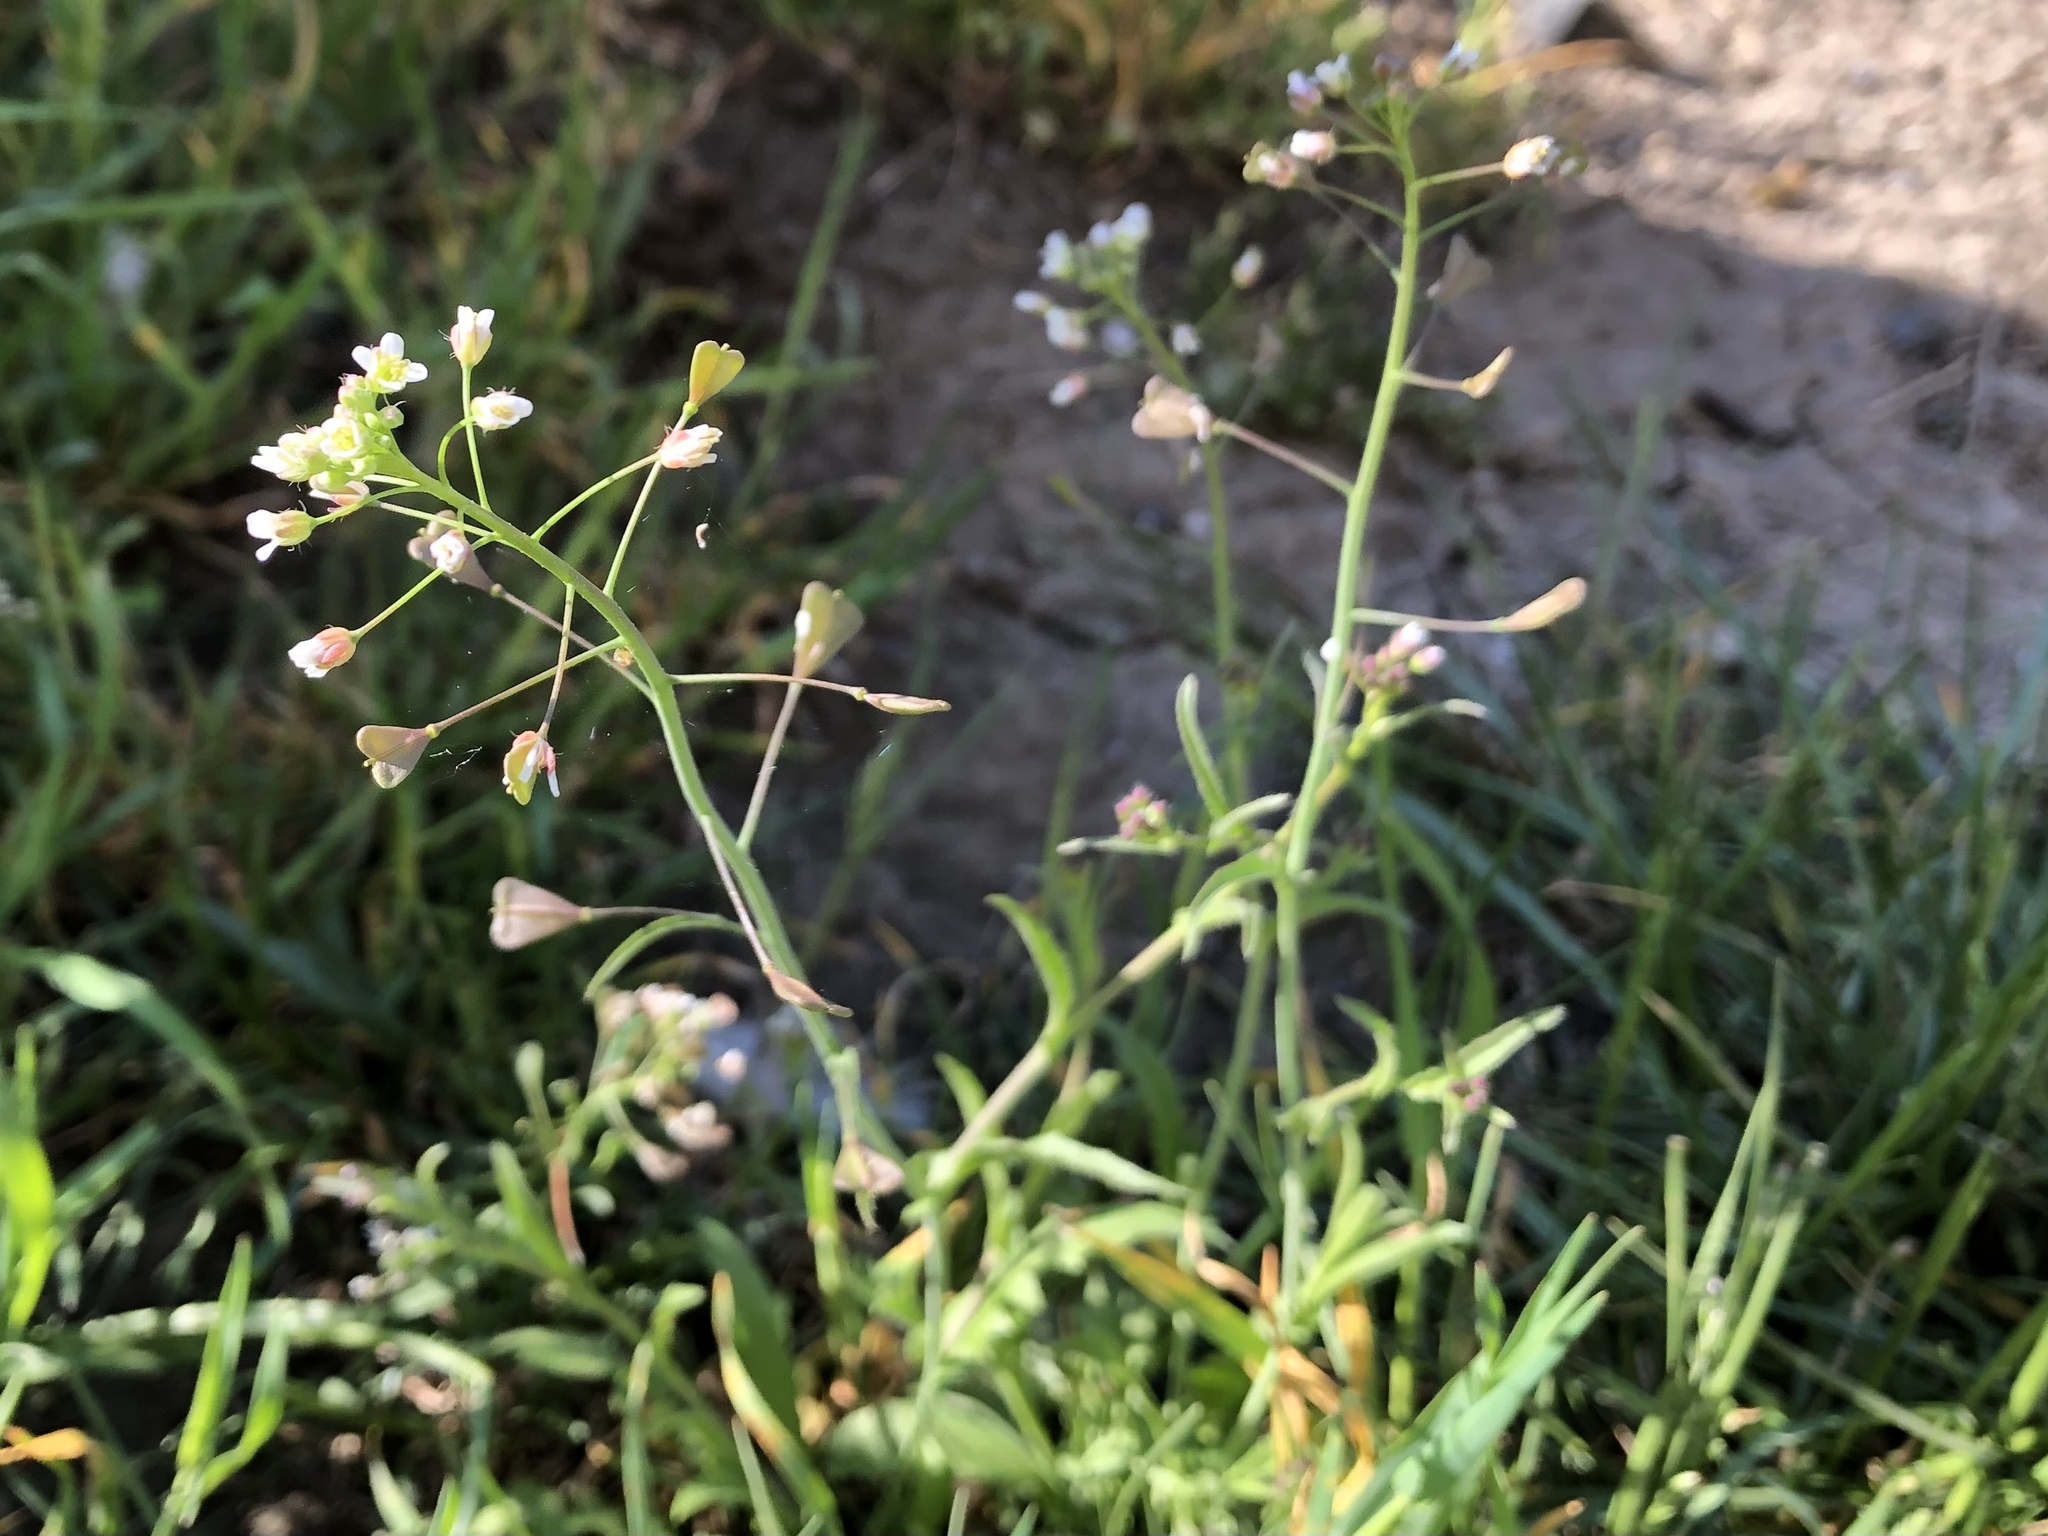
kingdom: Plantae
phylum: Tracheophyta
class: Magnoliopsida
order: Brassicales
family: Brassicaceae
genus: Capsella
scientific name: Capsella bursa-pastoris
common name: Shepherd's purse
